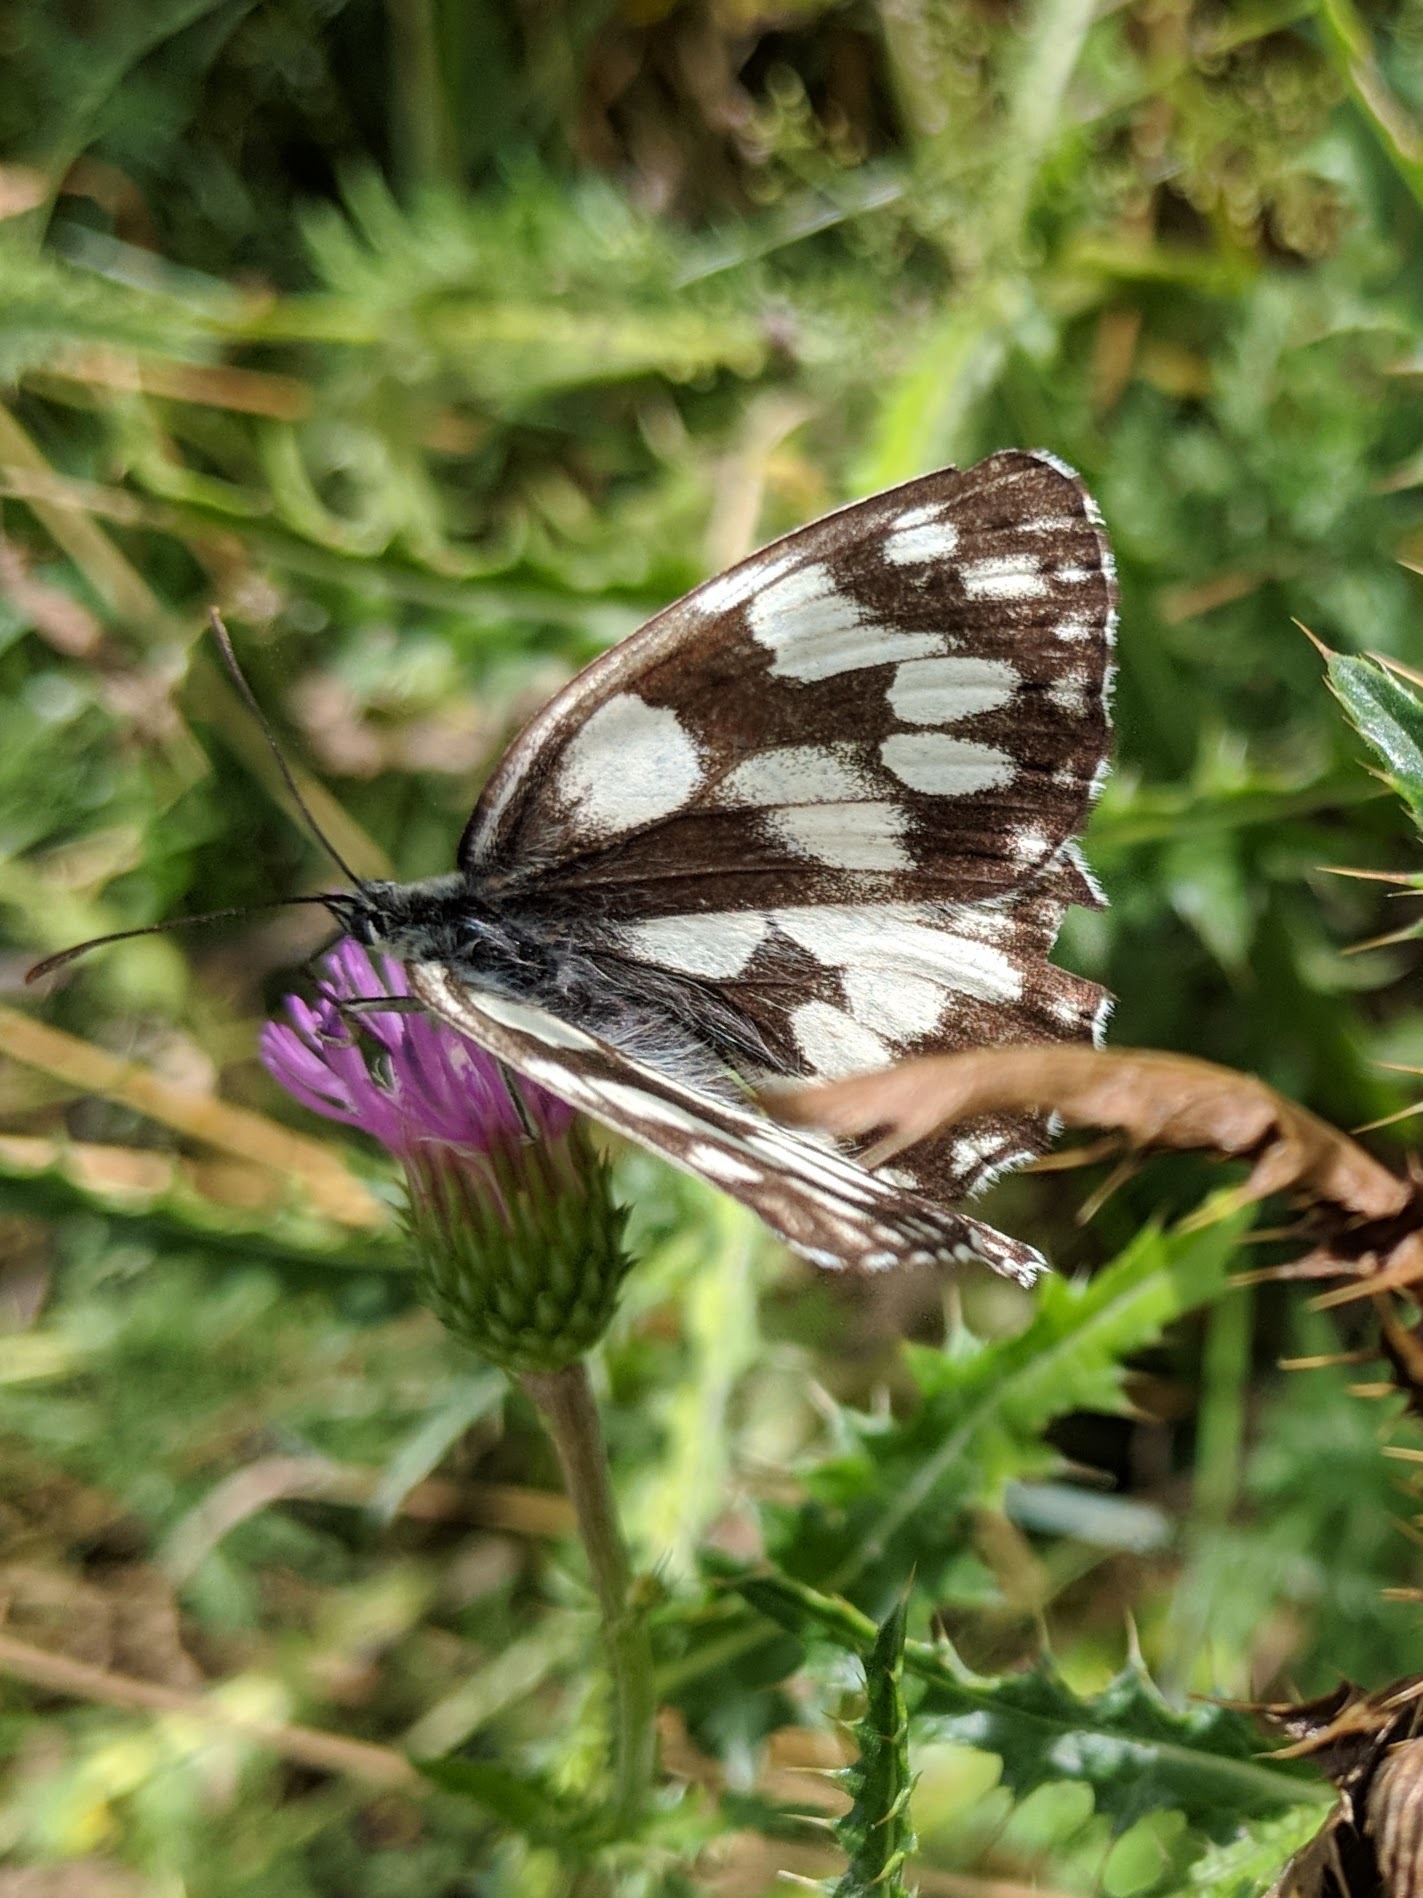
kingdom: Animalia
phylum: Arthropoda
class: Insecta
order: Lepidoptera
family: Nymphalidae
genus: Melanargia
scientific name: Melanargia galathea
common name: Marbled white
